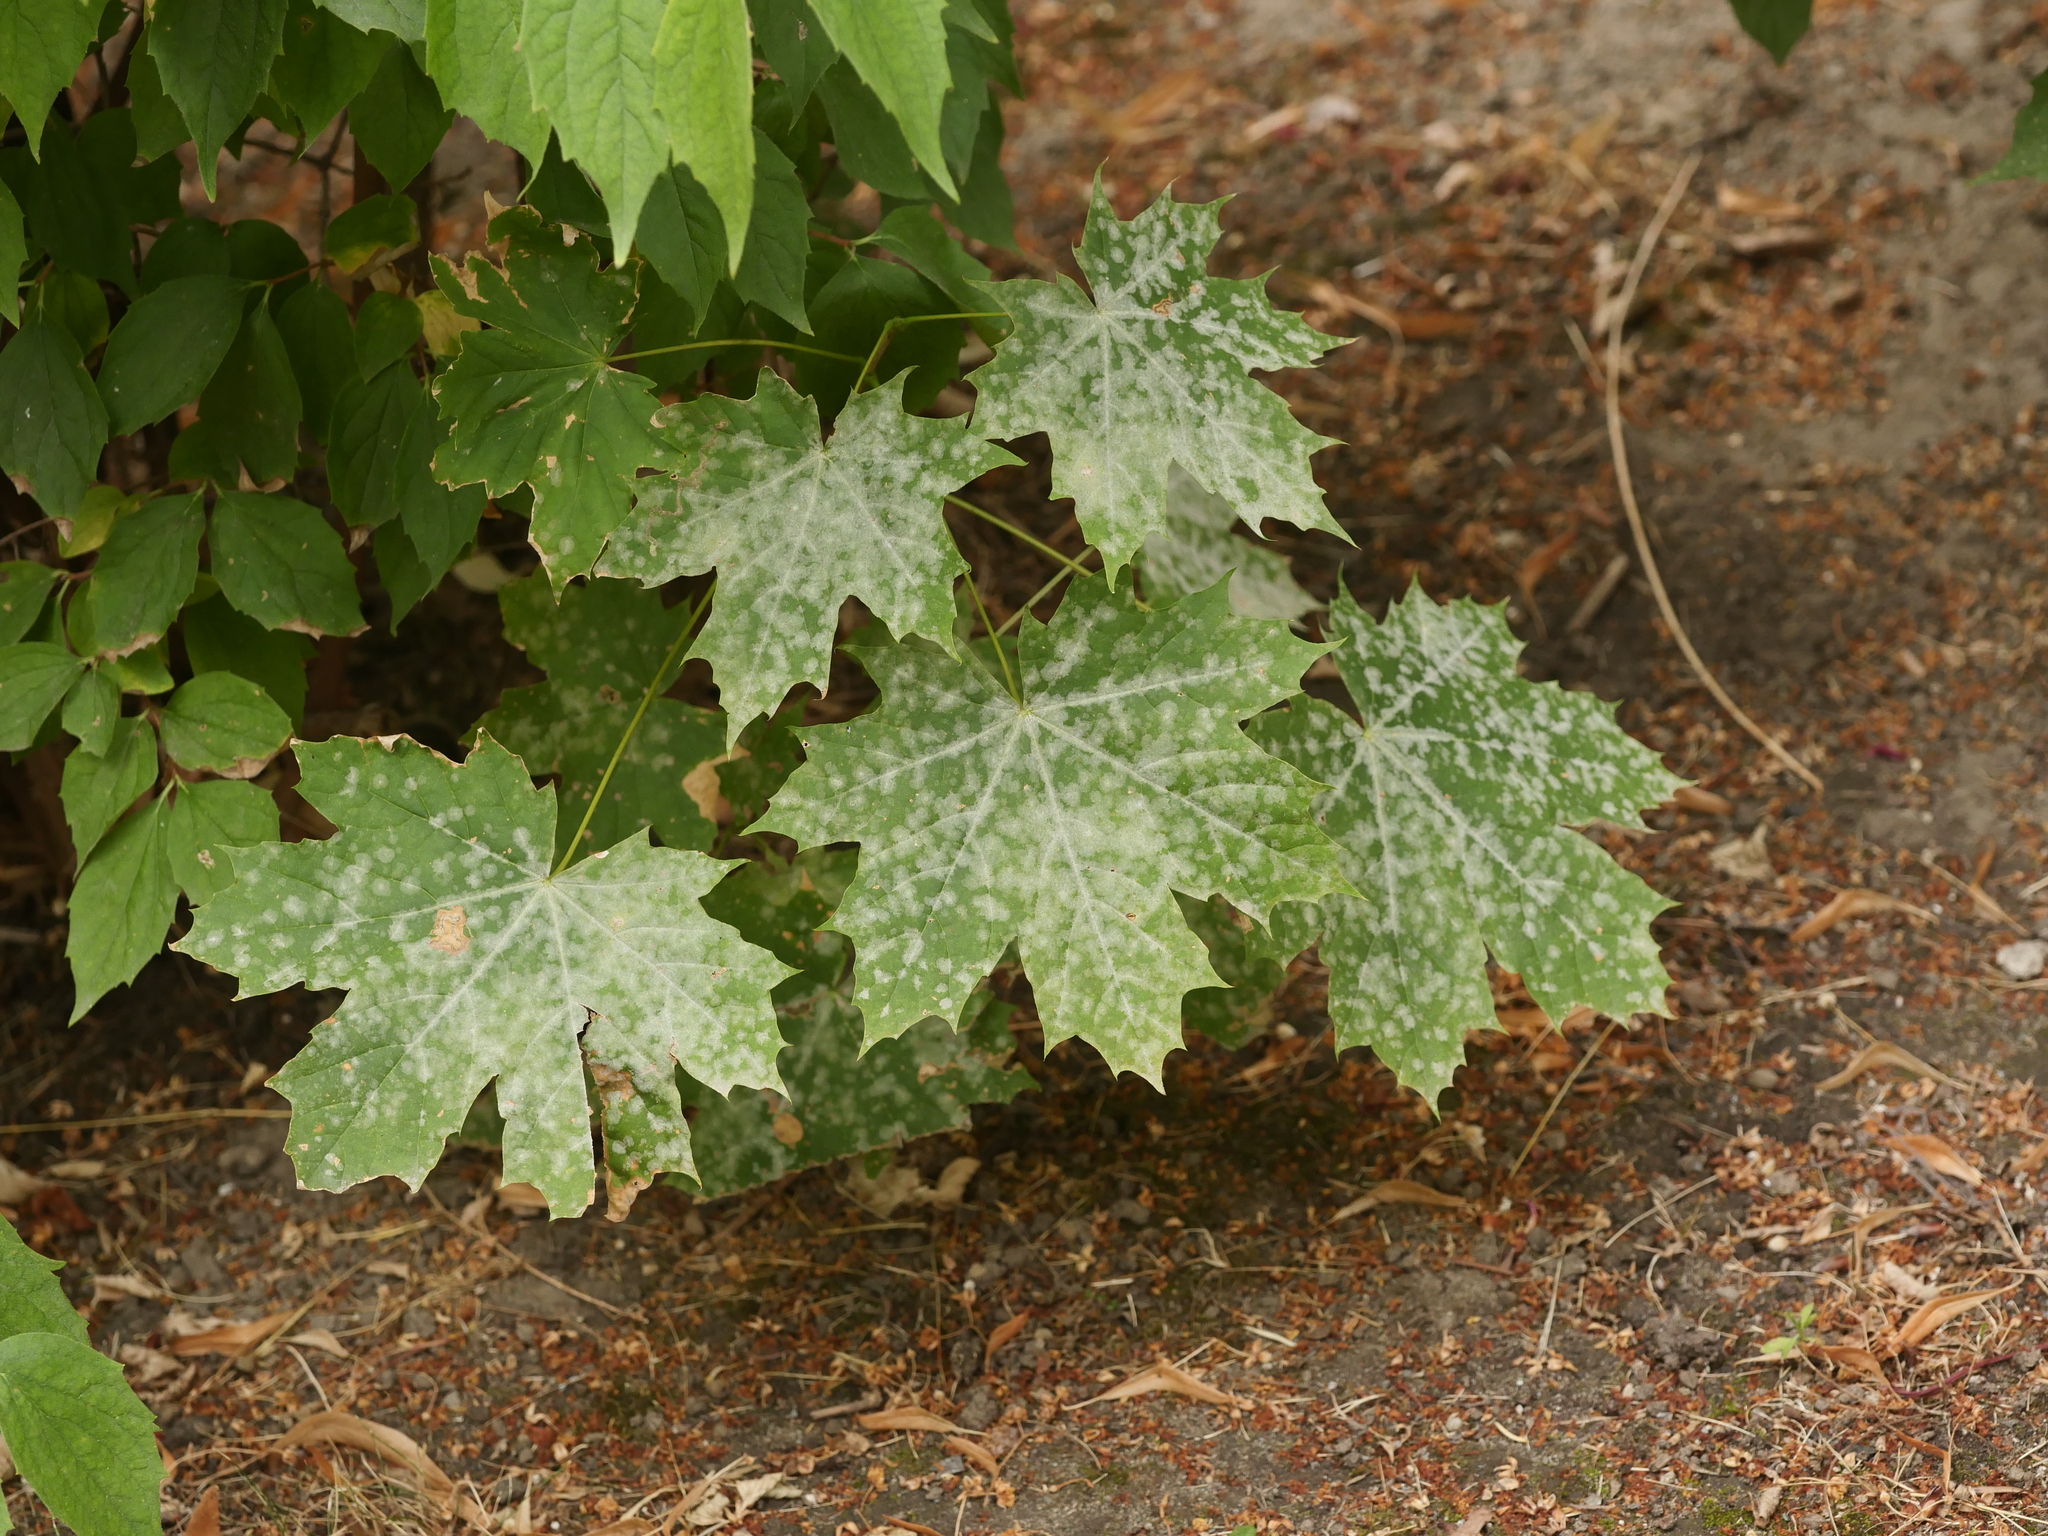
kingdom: Fungi
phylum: Ascomycota
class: Leotiomycetes
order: Helotiales
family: Erysiphaceae
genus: Sawadaea
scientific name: Sawadaea tulasnei
